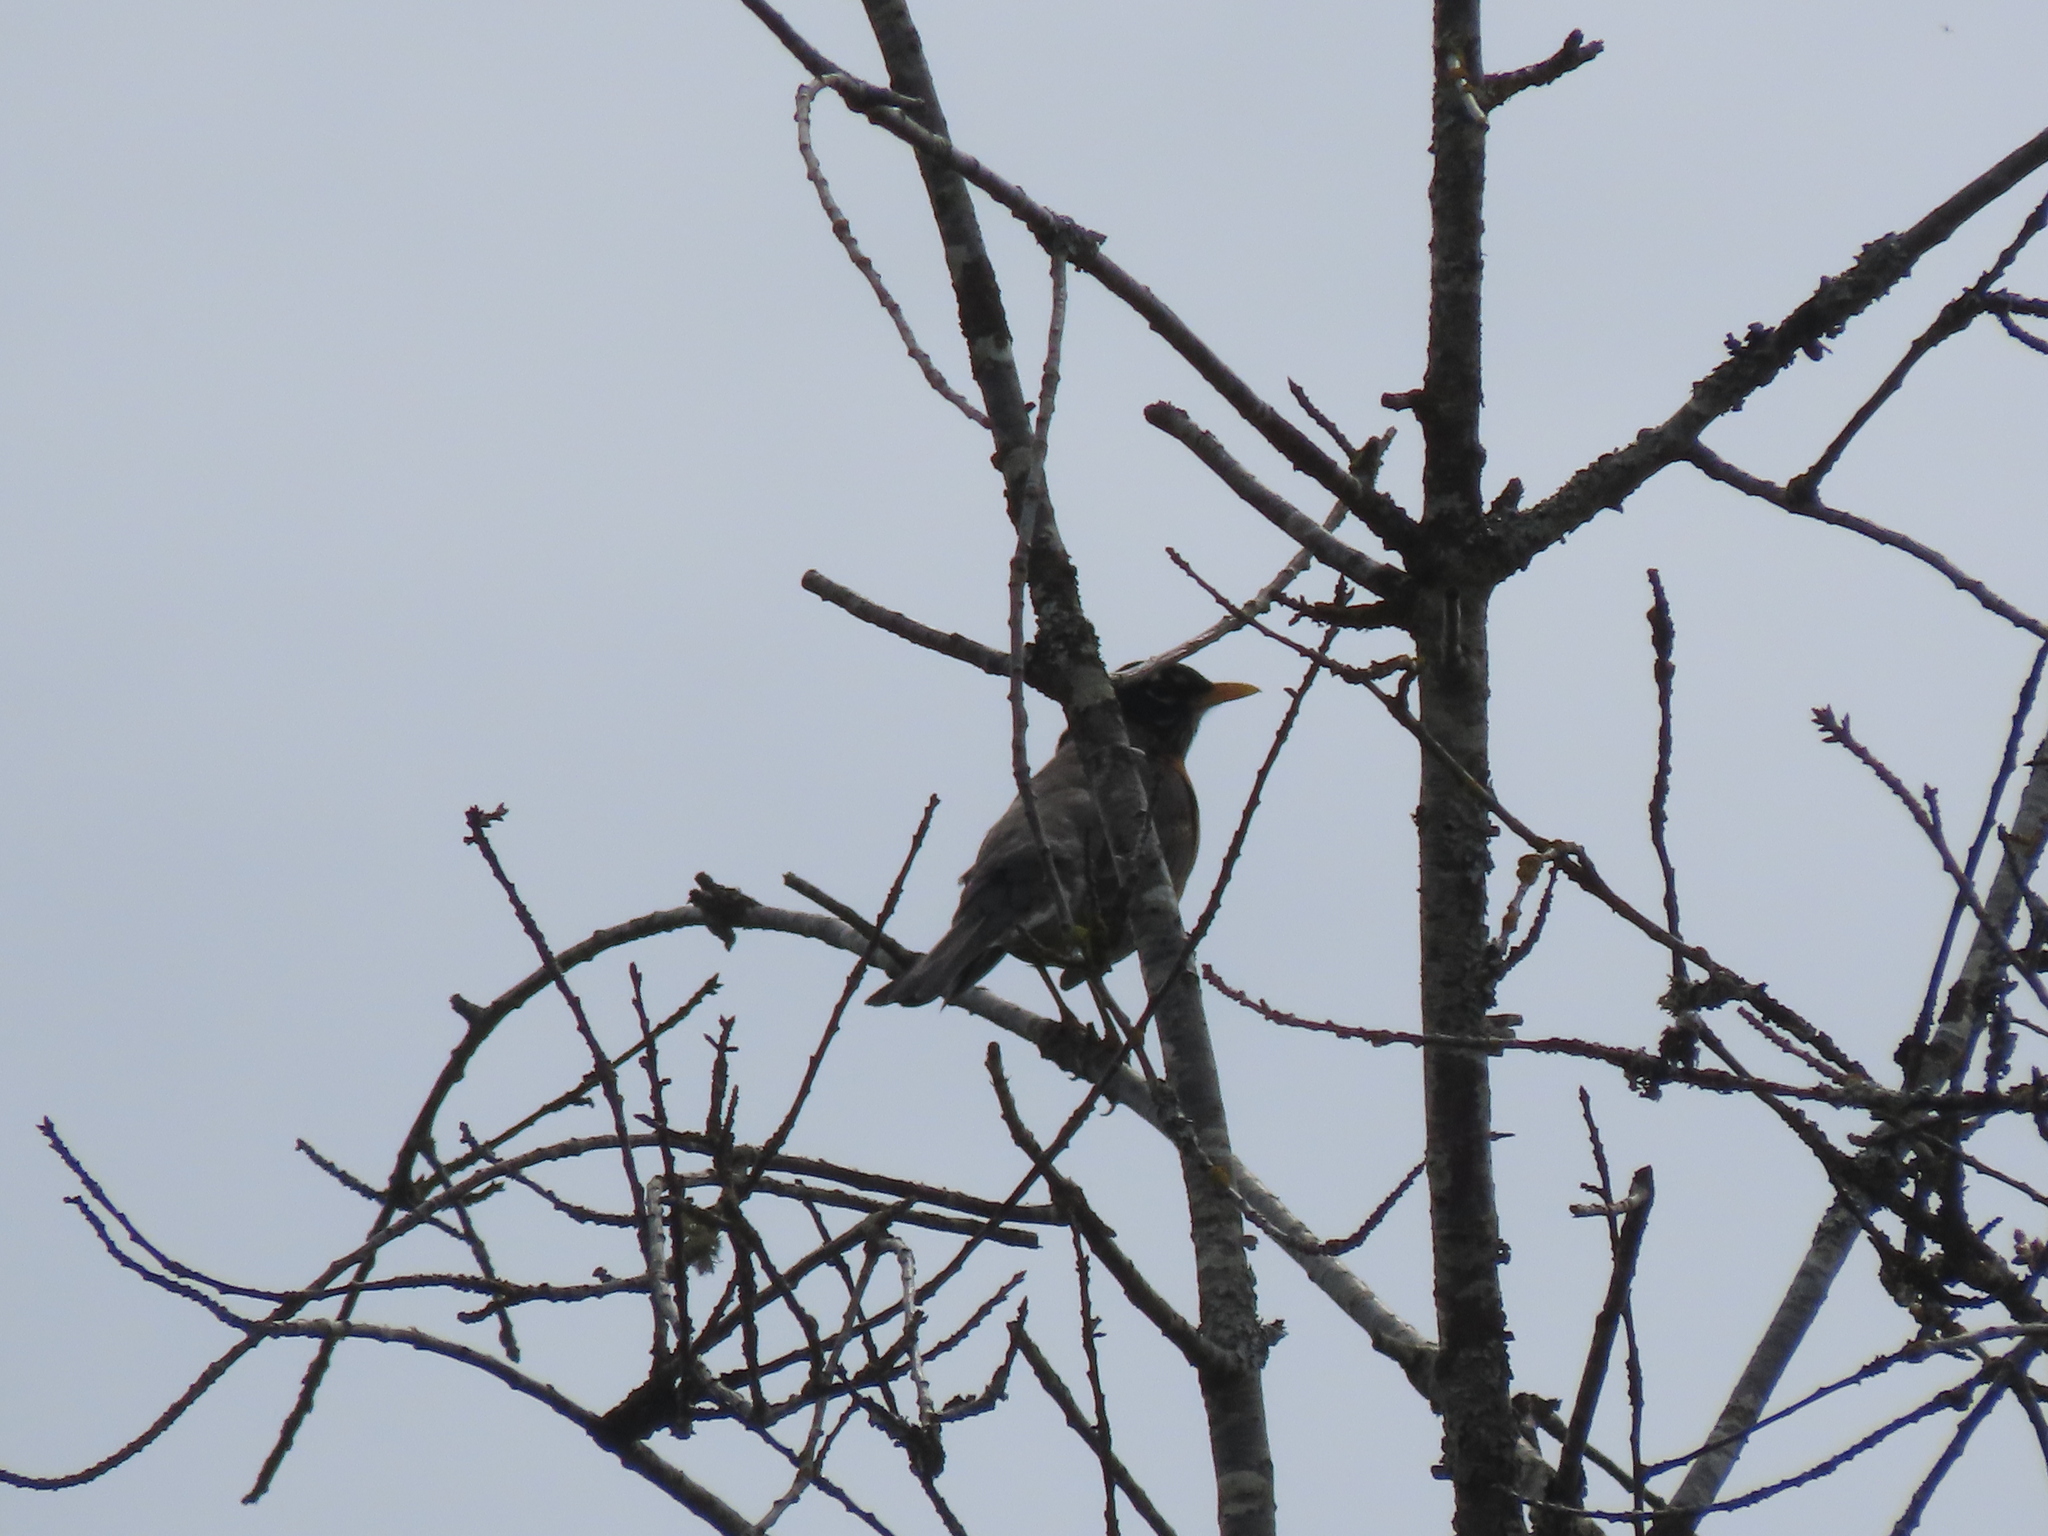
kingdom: Animalia
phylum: Chordata
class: Aves
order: Passeriformes
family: Turdidae
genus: Turdus
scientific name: Turdus migratorius
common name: American robin
